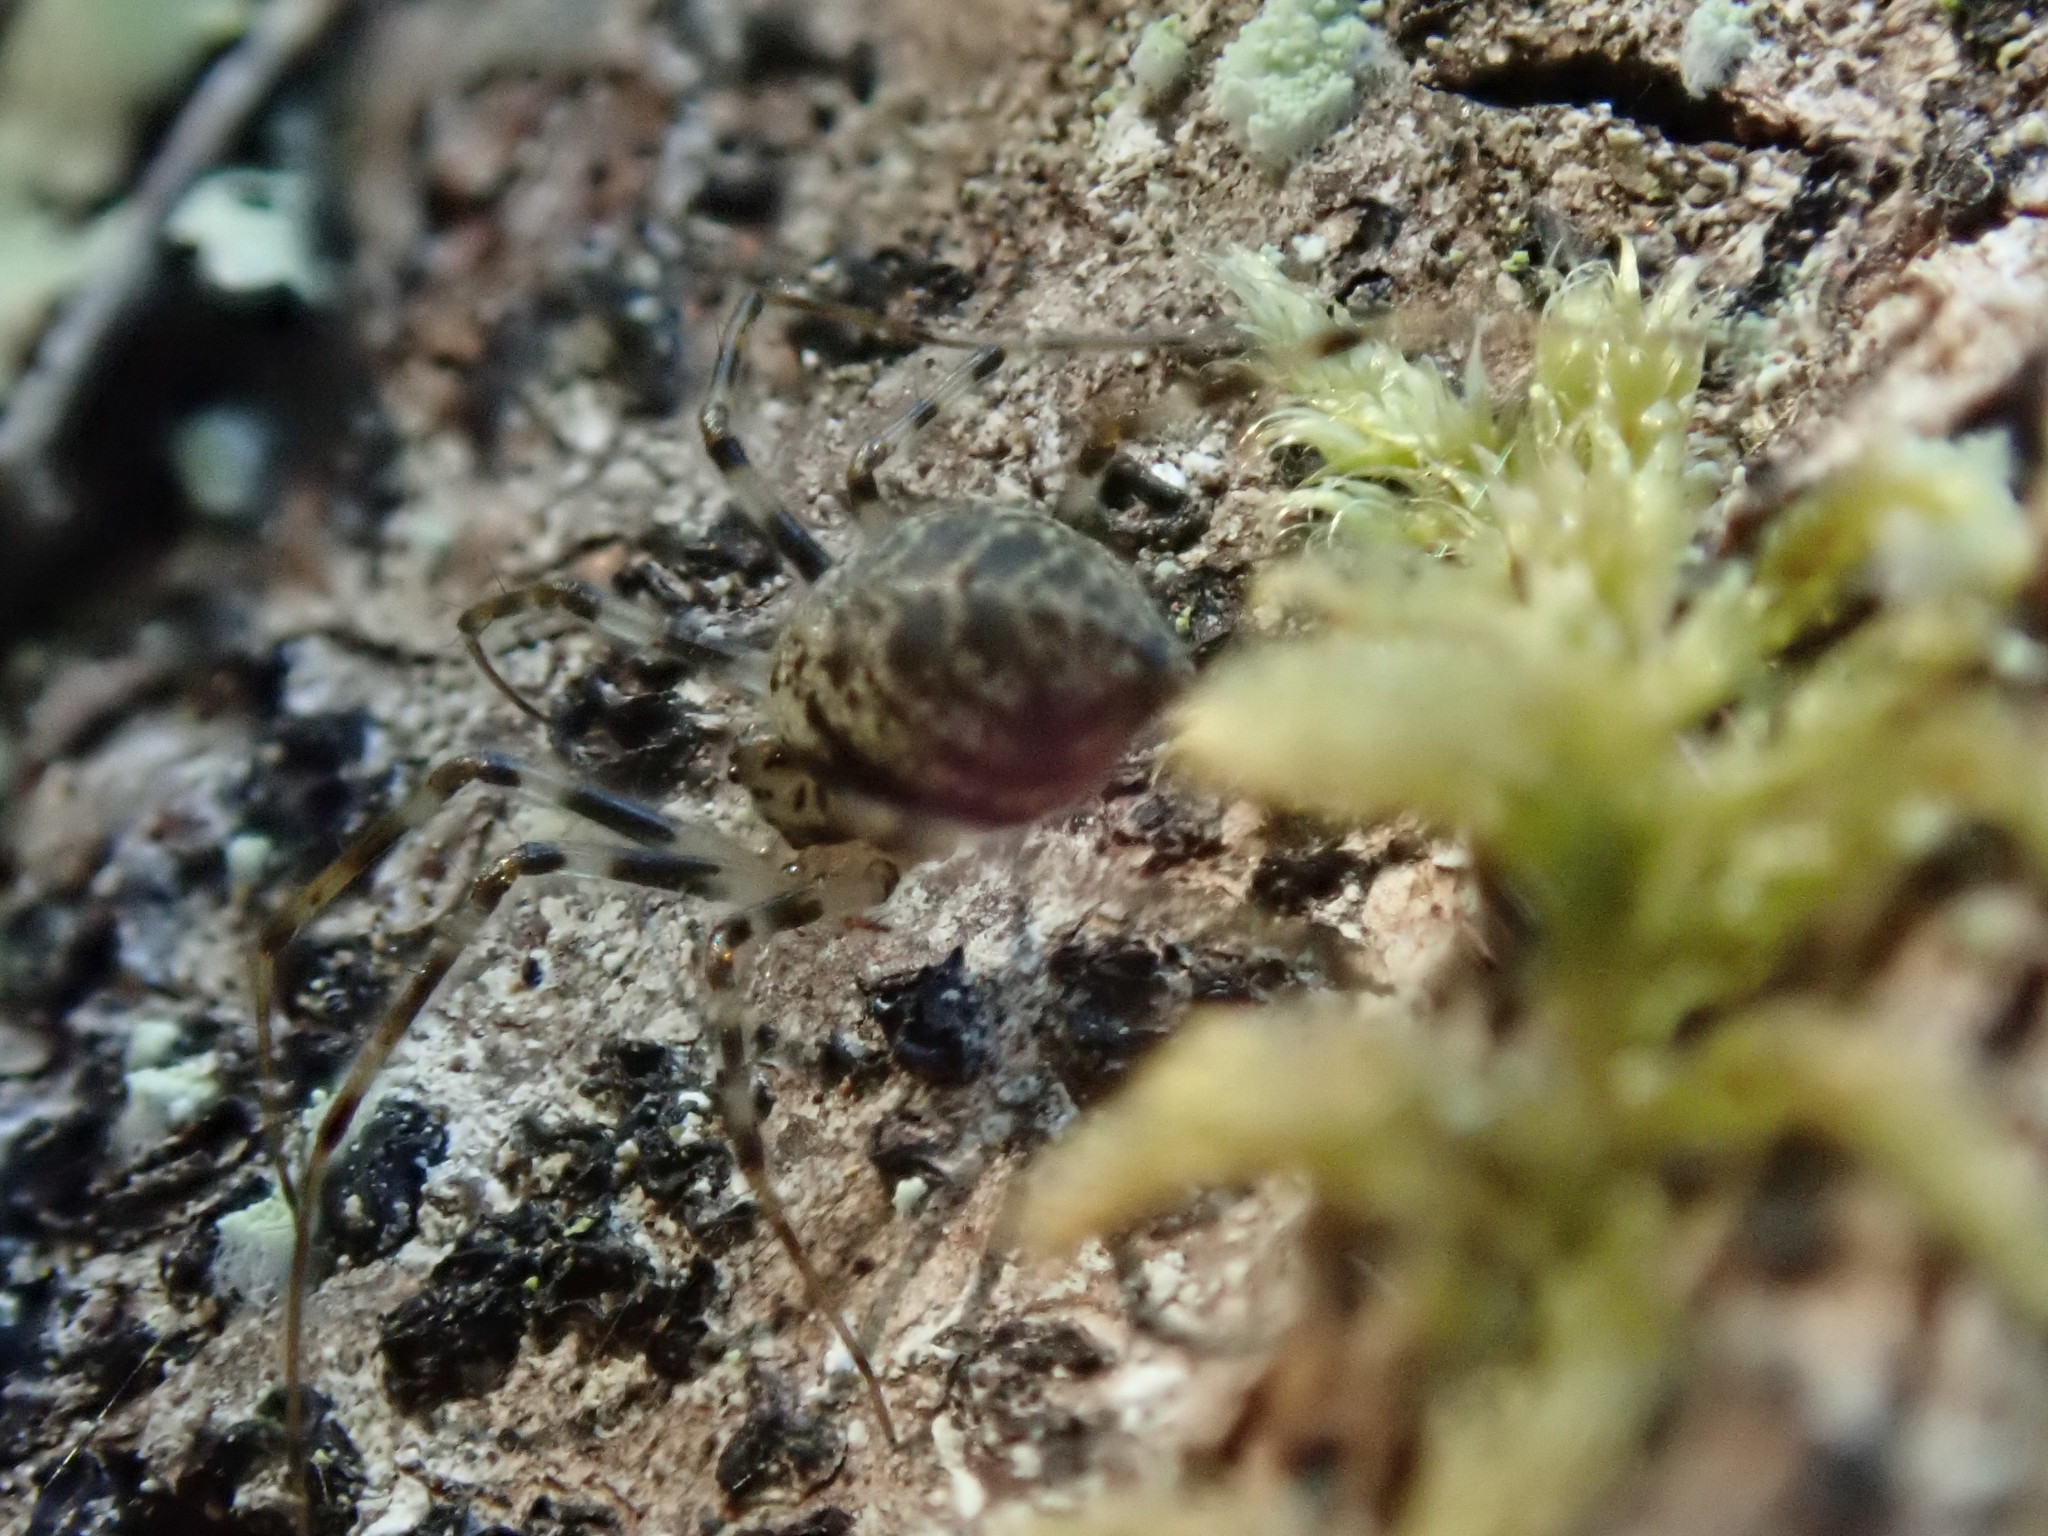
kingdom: Animalia
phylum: Arthropoda
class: Arachnida
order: Araneae
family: Linyphiidae
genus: Drapetisca
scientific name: Drapetisca alteranda
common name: Northern long-toothed sheetweaver
